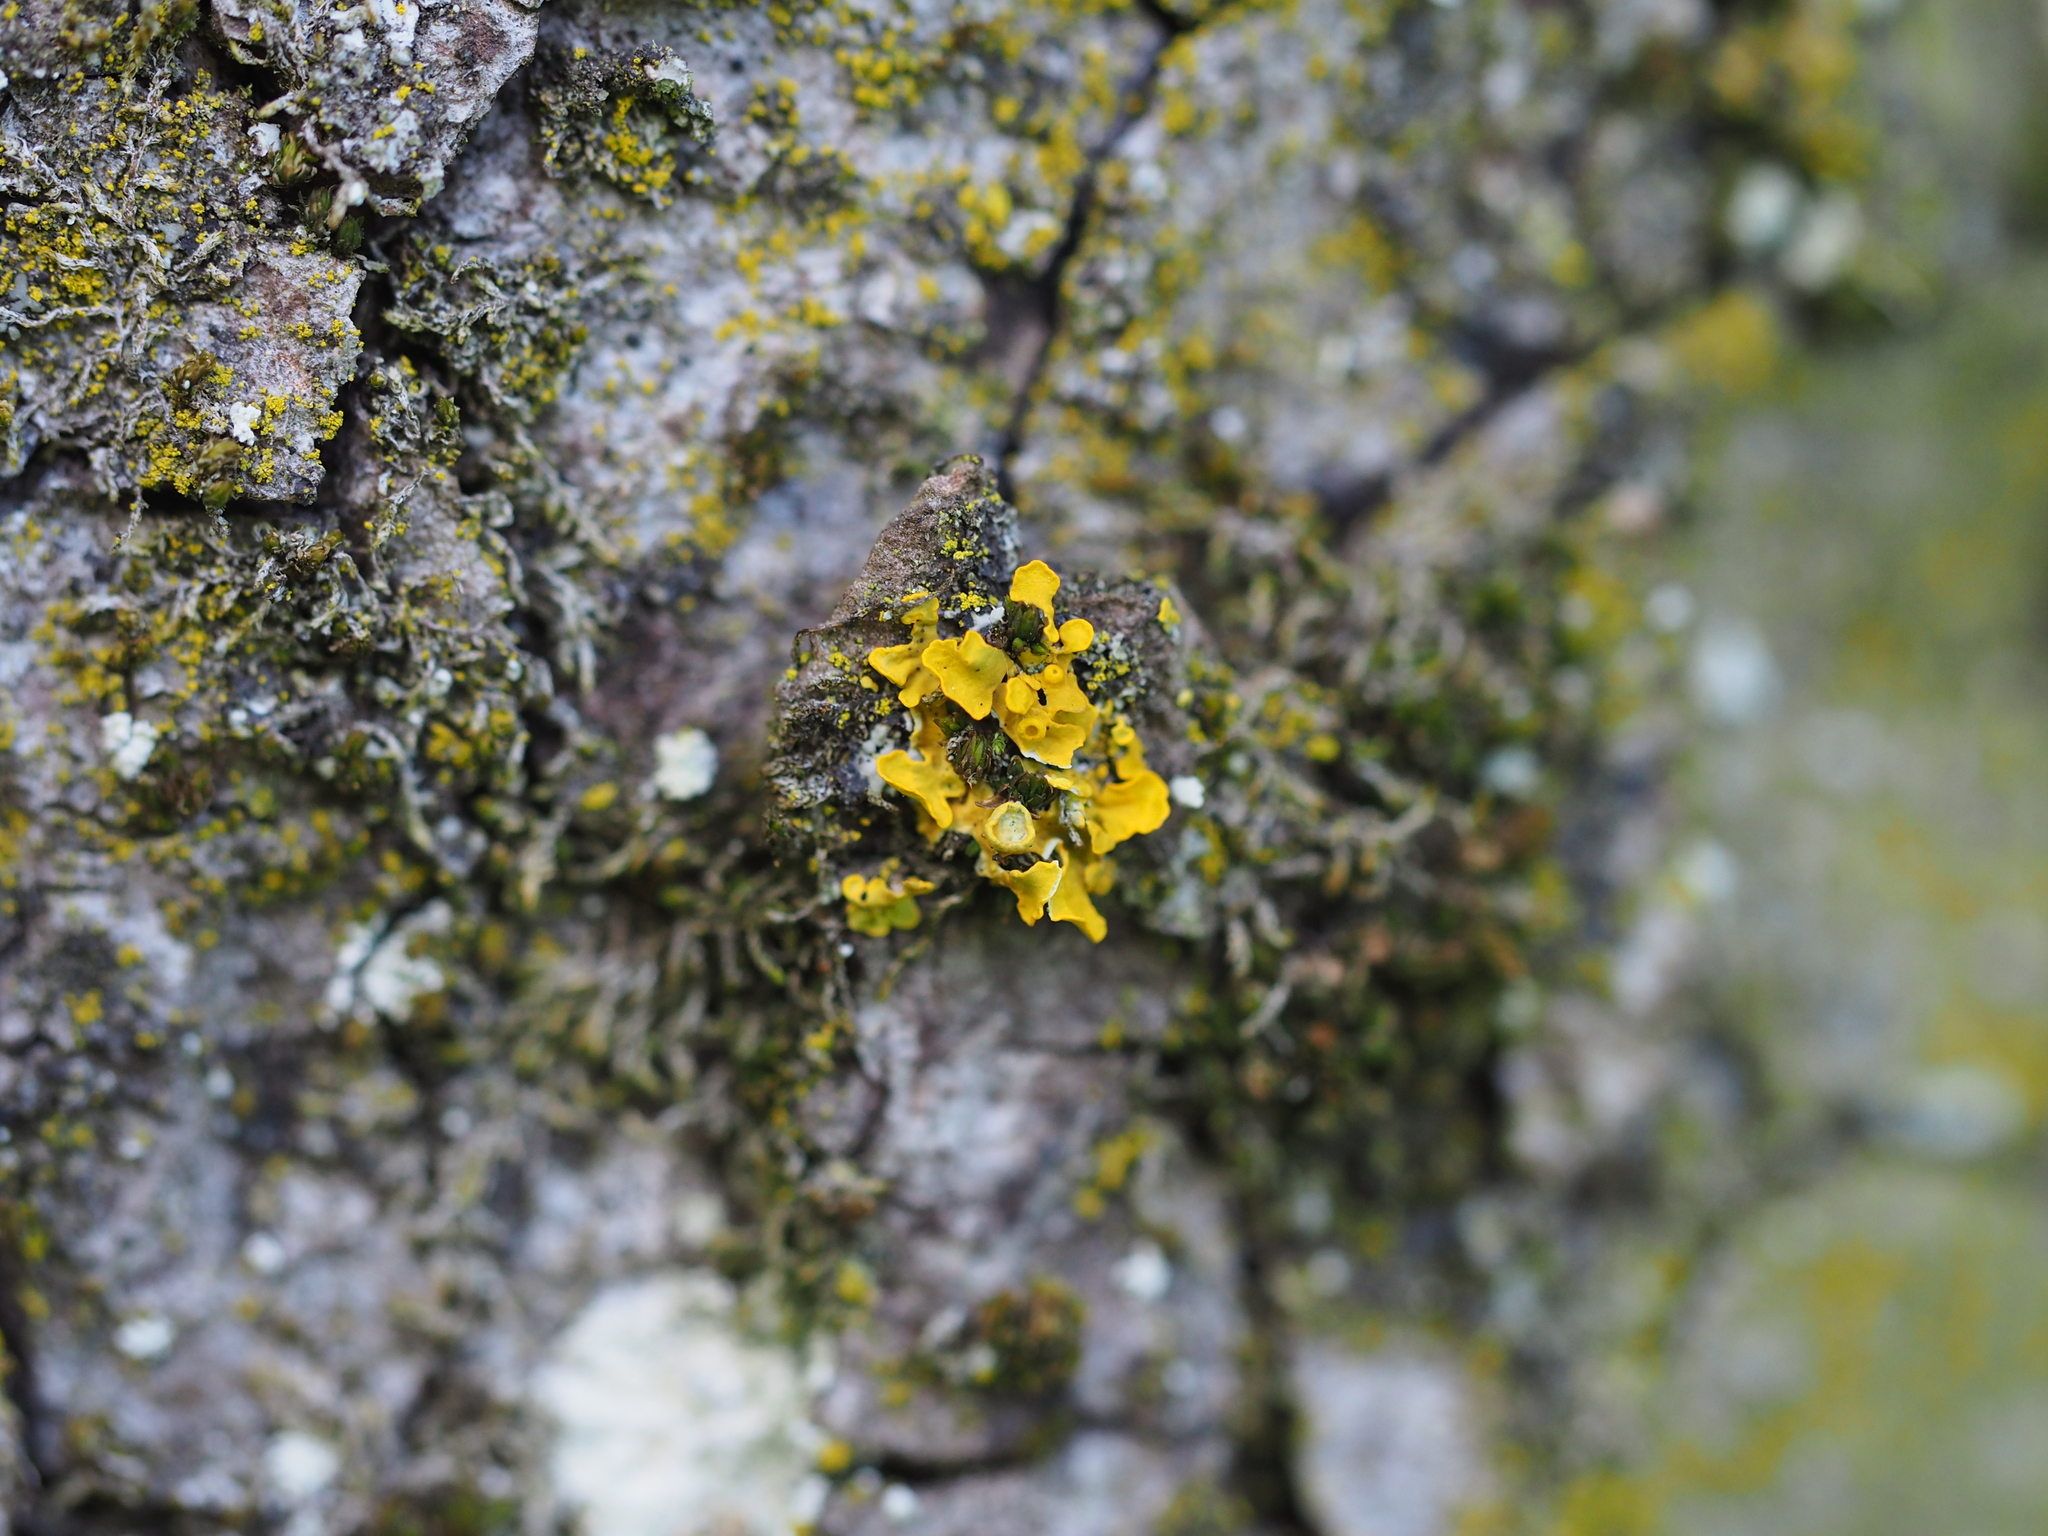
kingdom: Fungi
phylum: Ascomycota
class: Lecanoromycetes
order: Teloschistales
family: Teloschistaceae
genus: Xanthoria
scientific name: Xanthoria parietina
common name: Common orange lichen
